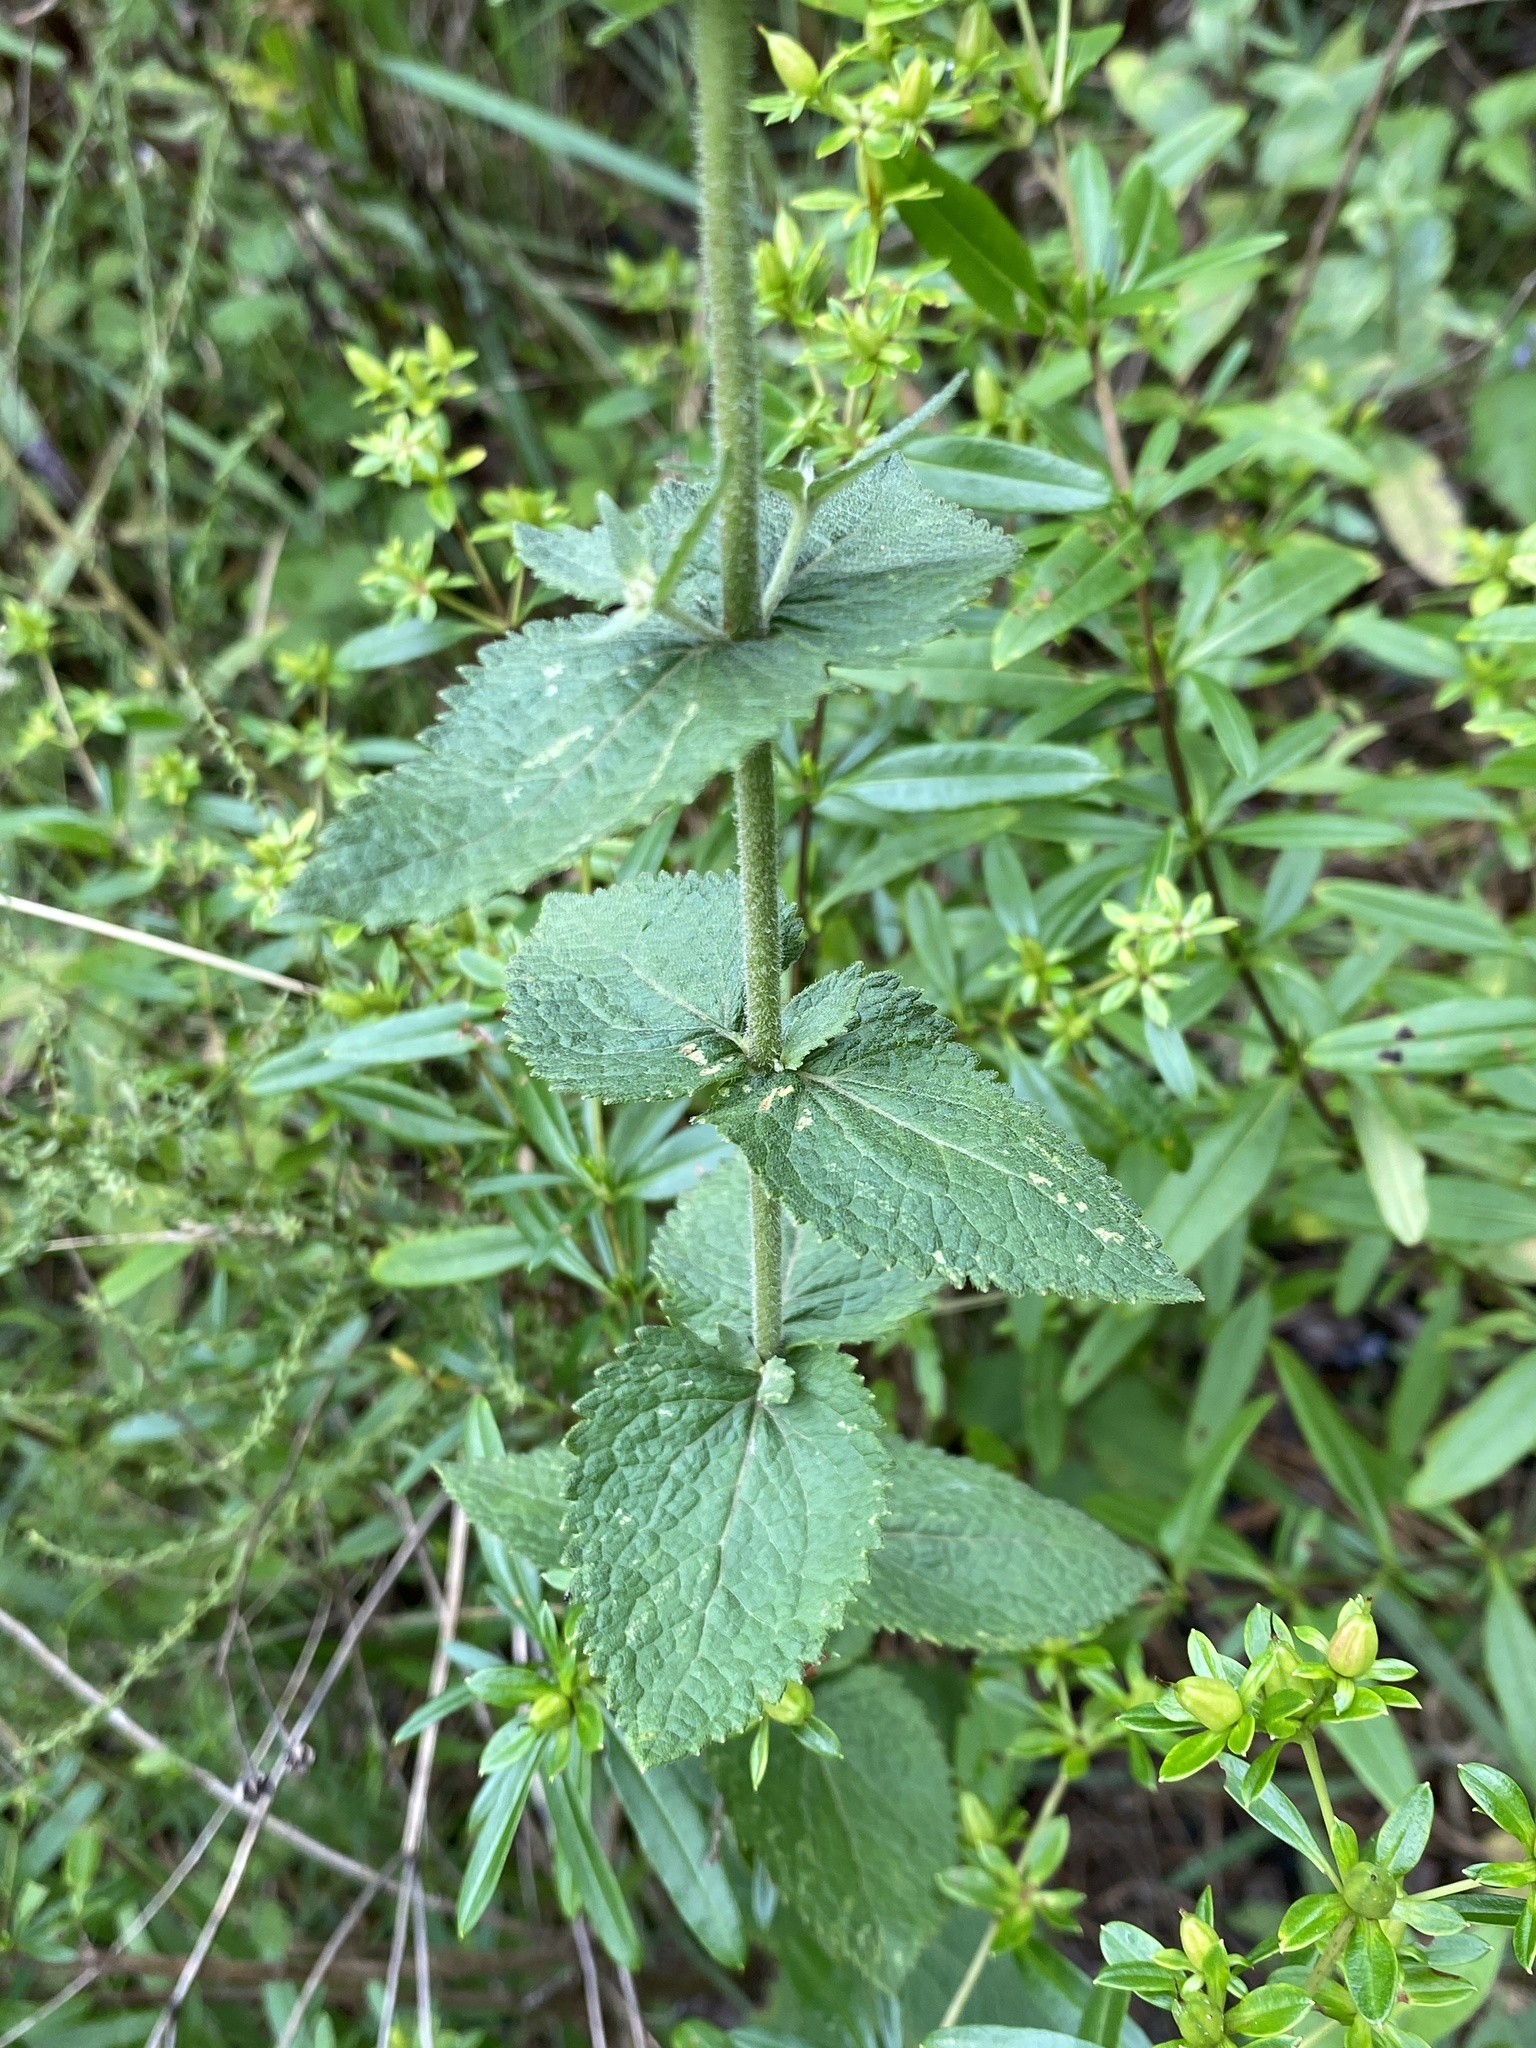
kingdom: Plantae
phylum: Tracheophyta
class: Magnoliopsida
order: Asterales
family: Asteraceae
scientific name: Asteraceae
